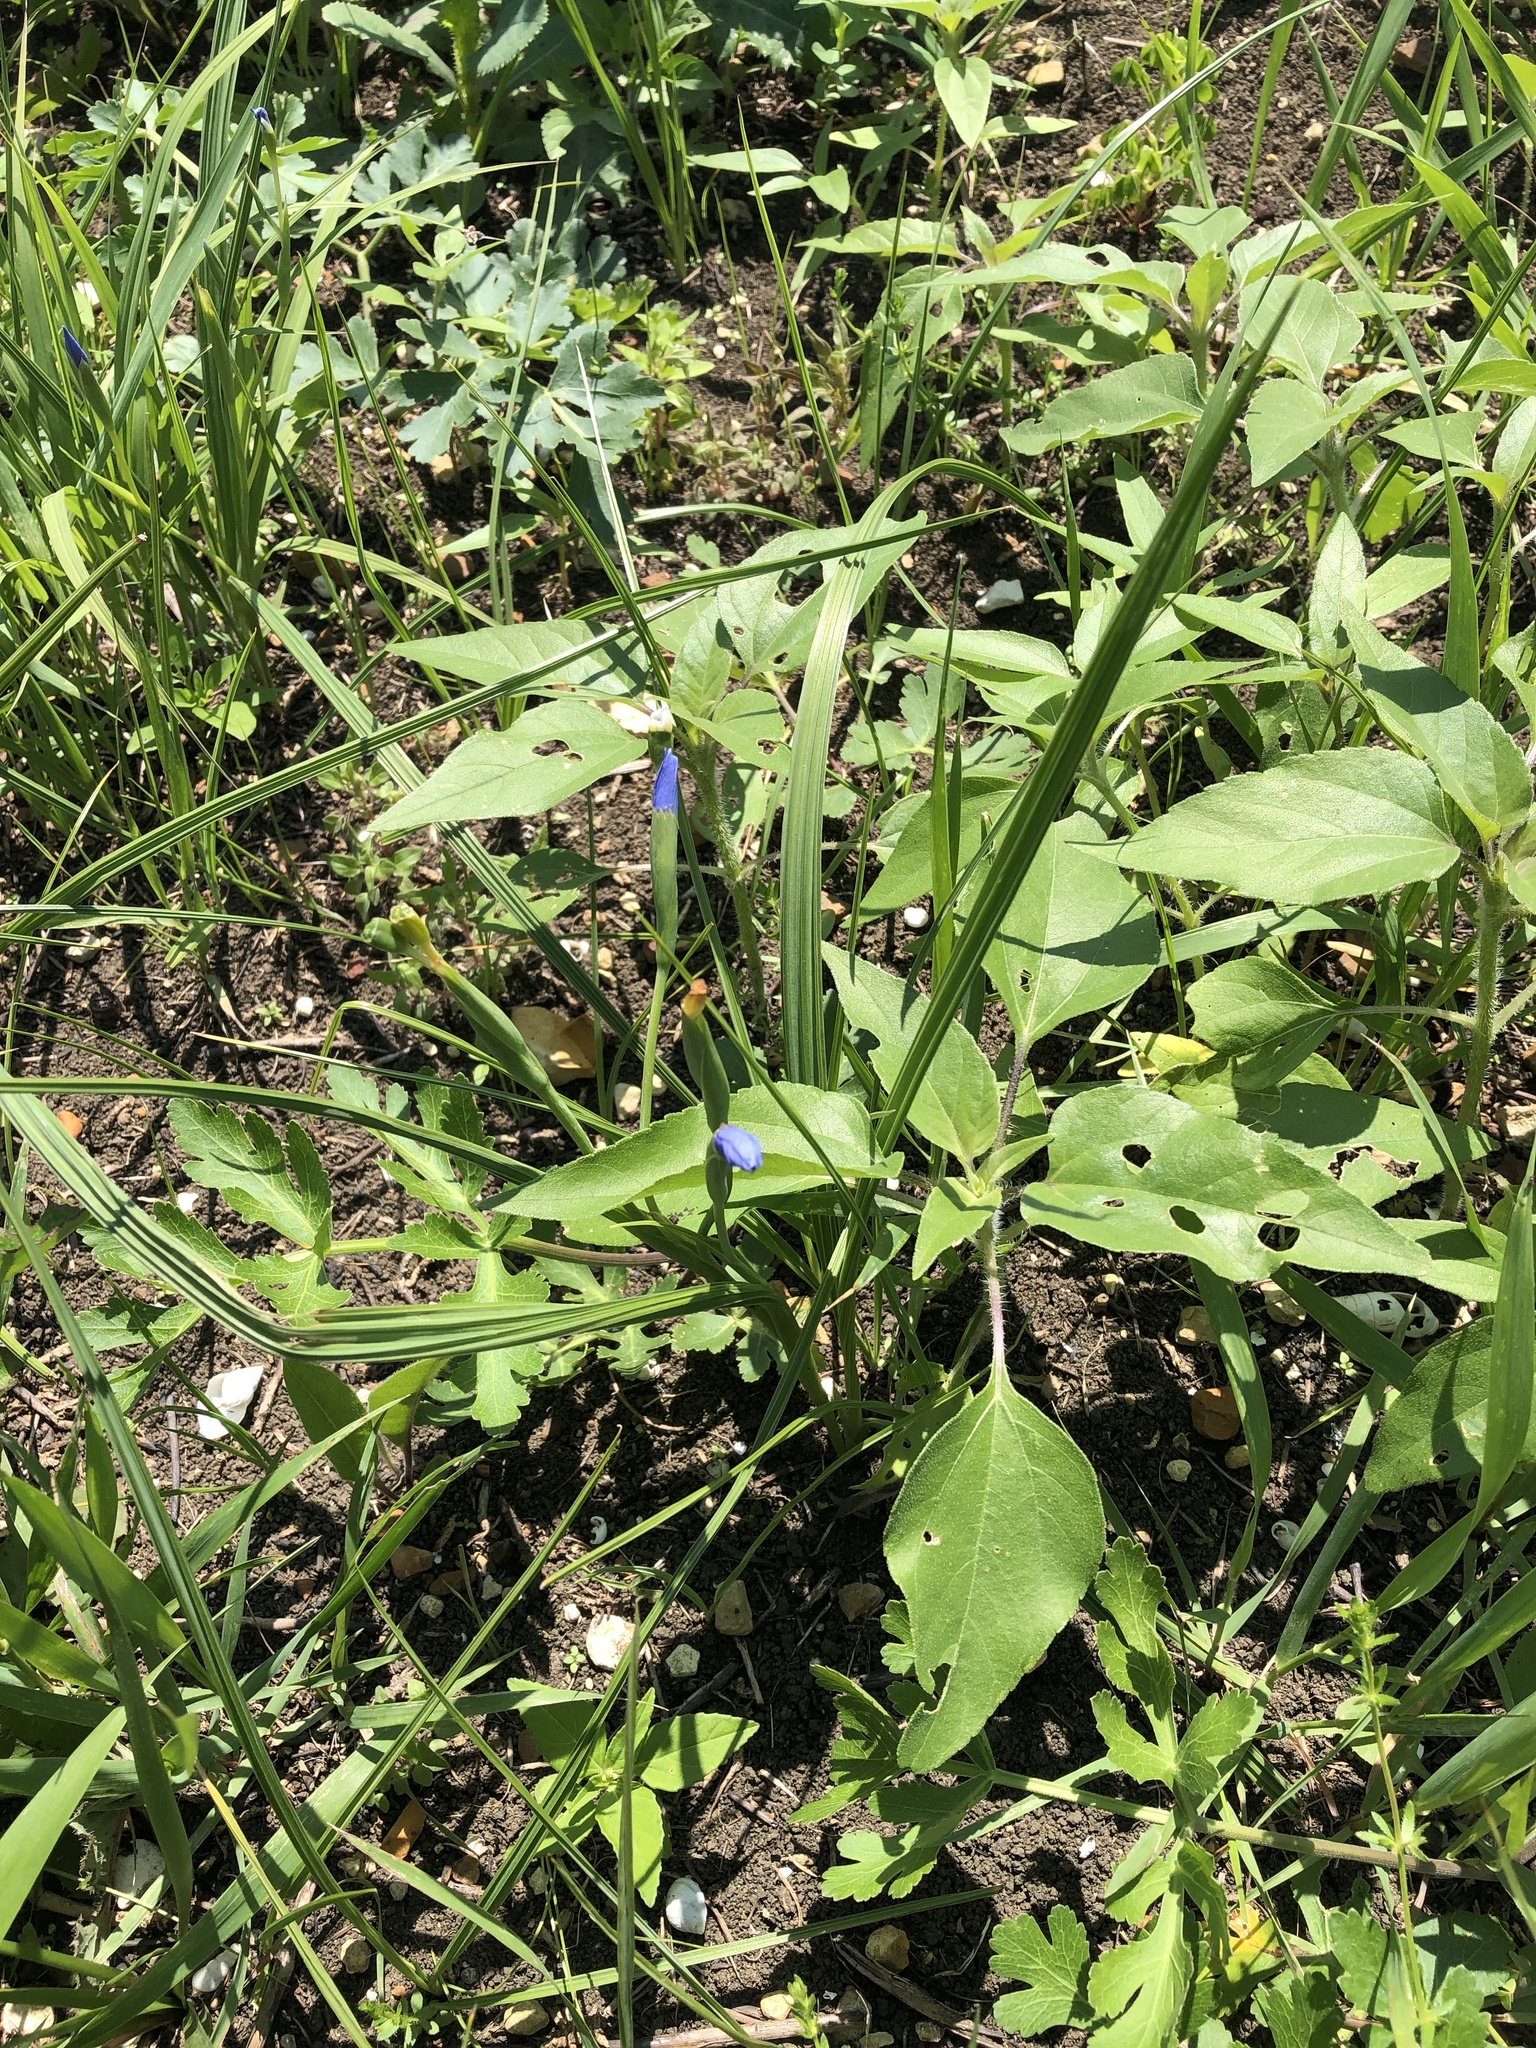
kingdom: Plantae
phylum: Tracheophyta
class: Liliopsida
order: Asparagales
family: Iridaceae
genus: Nemastylis
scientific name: Nemastylis geminiflora
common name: Prairie celestial
